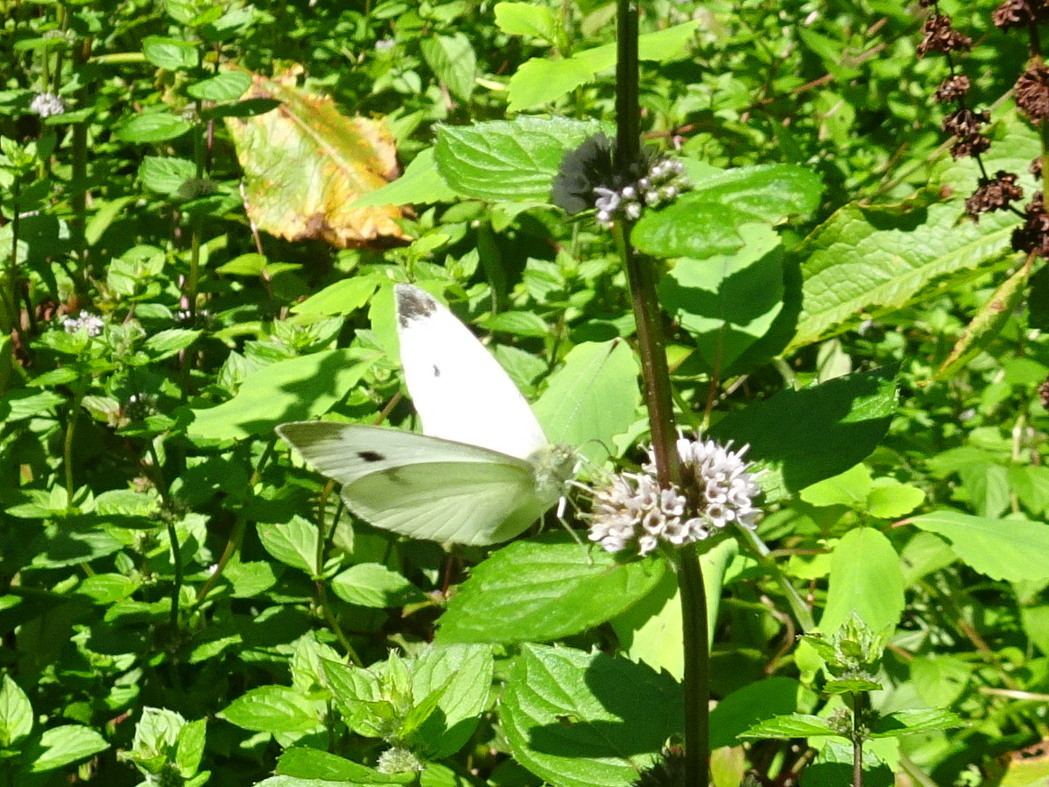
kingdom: Animalia
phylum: Arthropoda
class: Insecta
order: Lepidoptera
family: Pieridae
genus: Pieris
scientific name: Pieris rapae
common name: Small white
